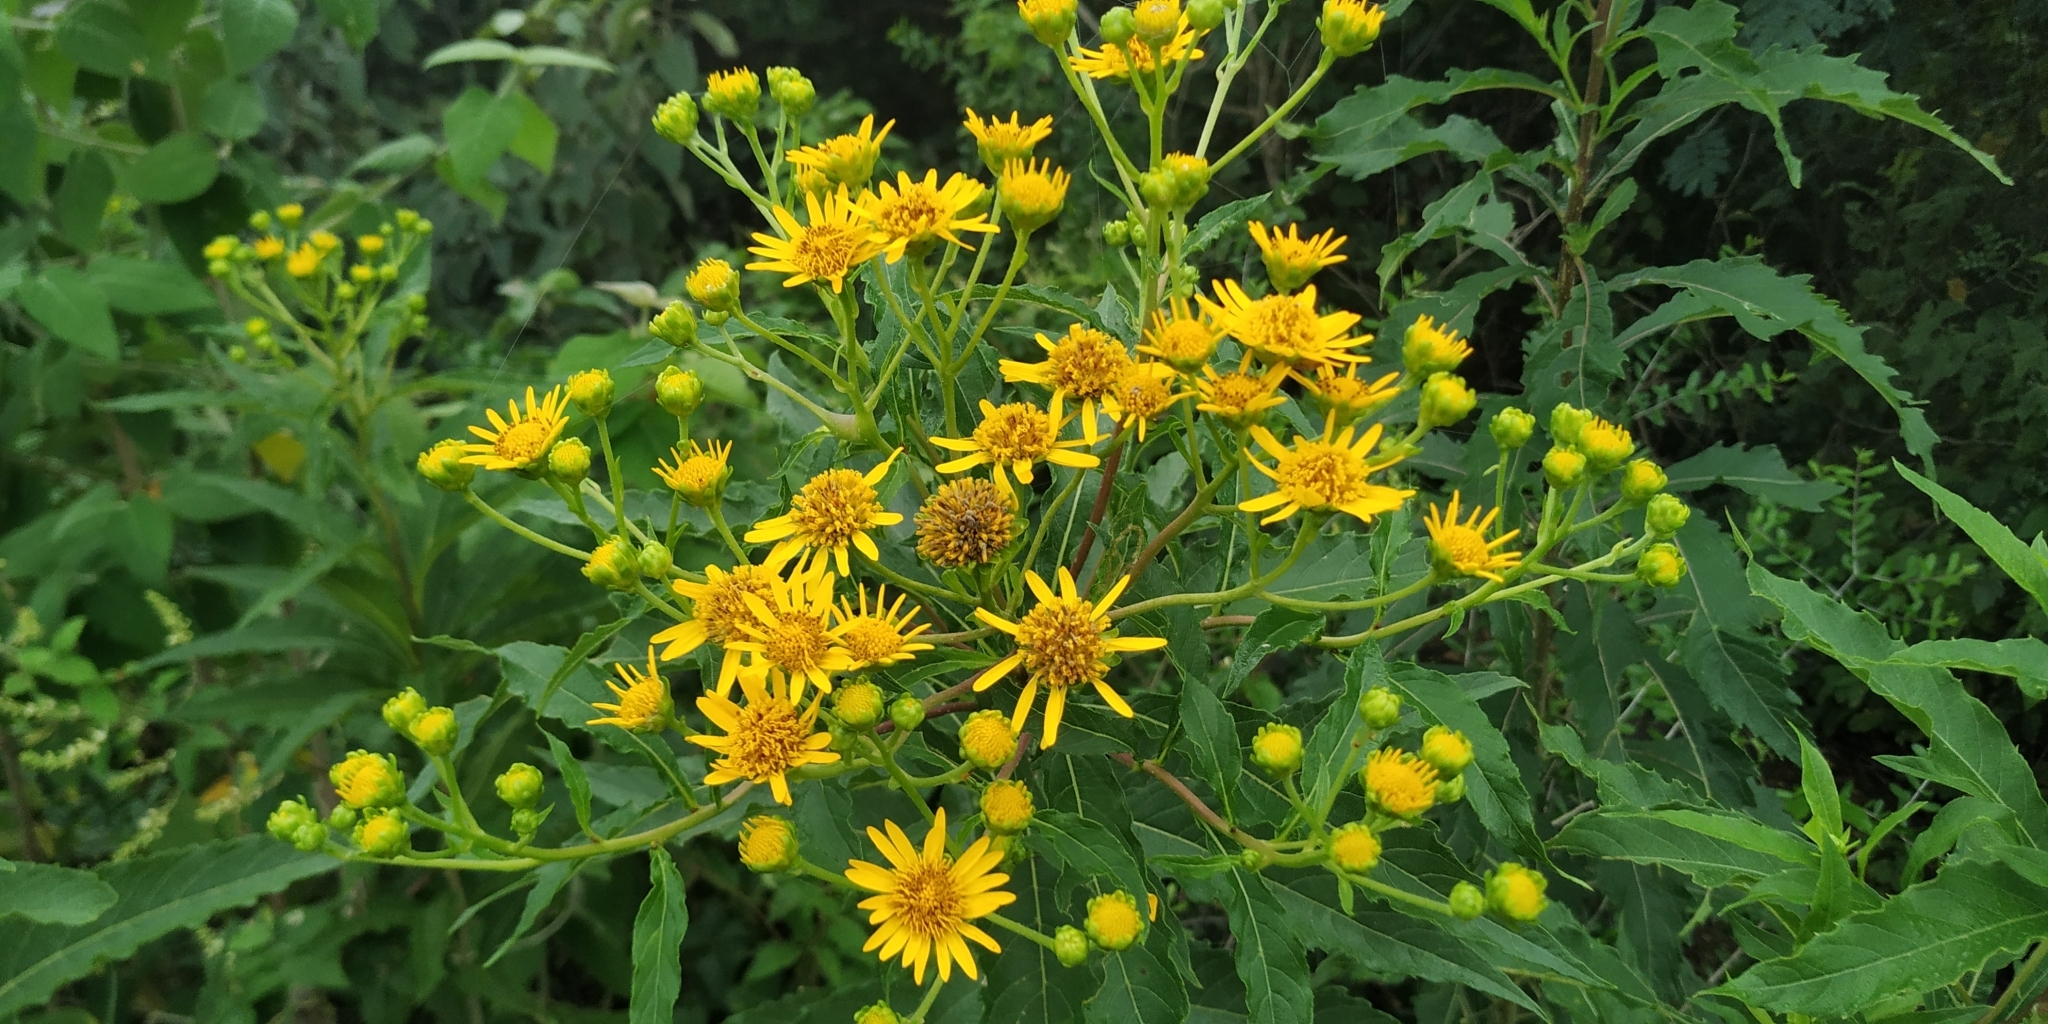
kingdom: Plantae
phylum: Tracheophyta
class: Magnoliopsida
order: Asterales
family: Asteraceae
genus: Verbesina
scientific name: Verbesina persicifolia
